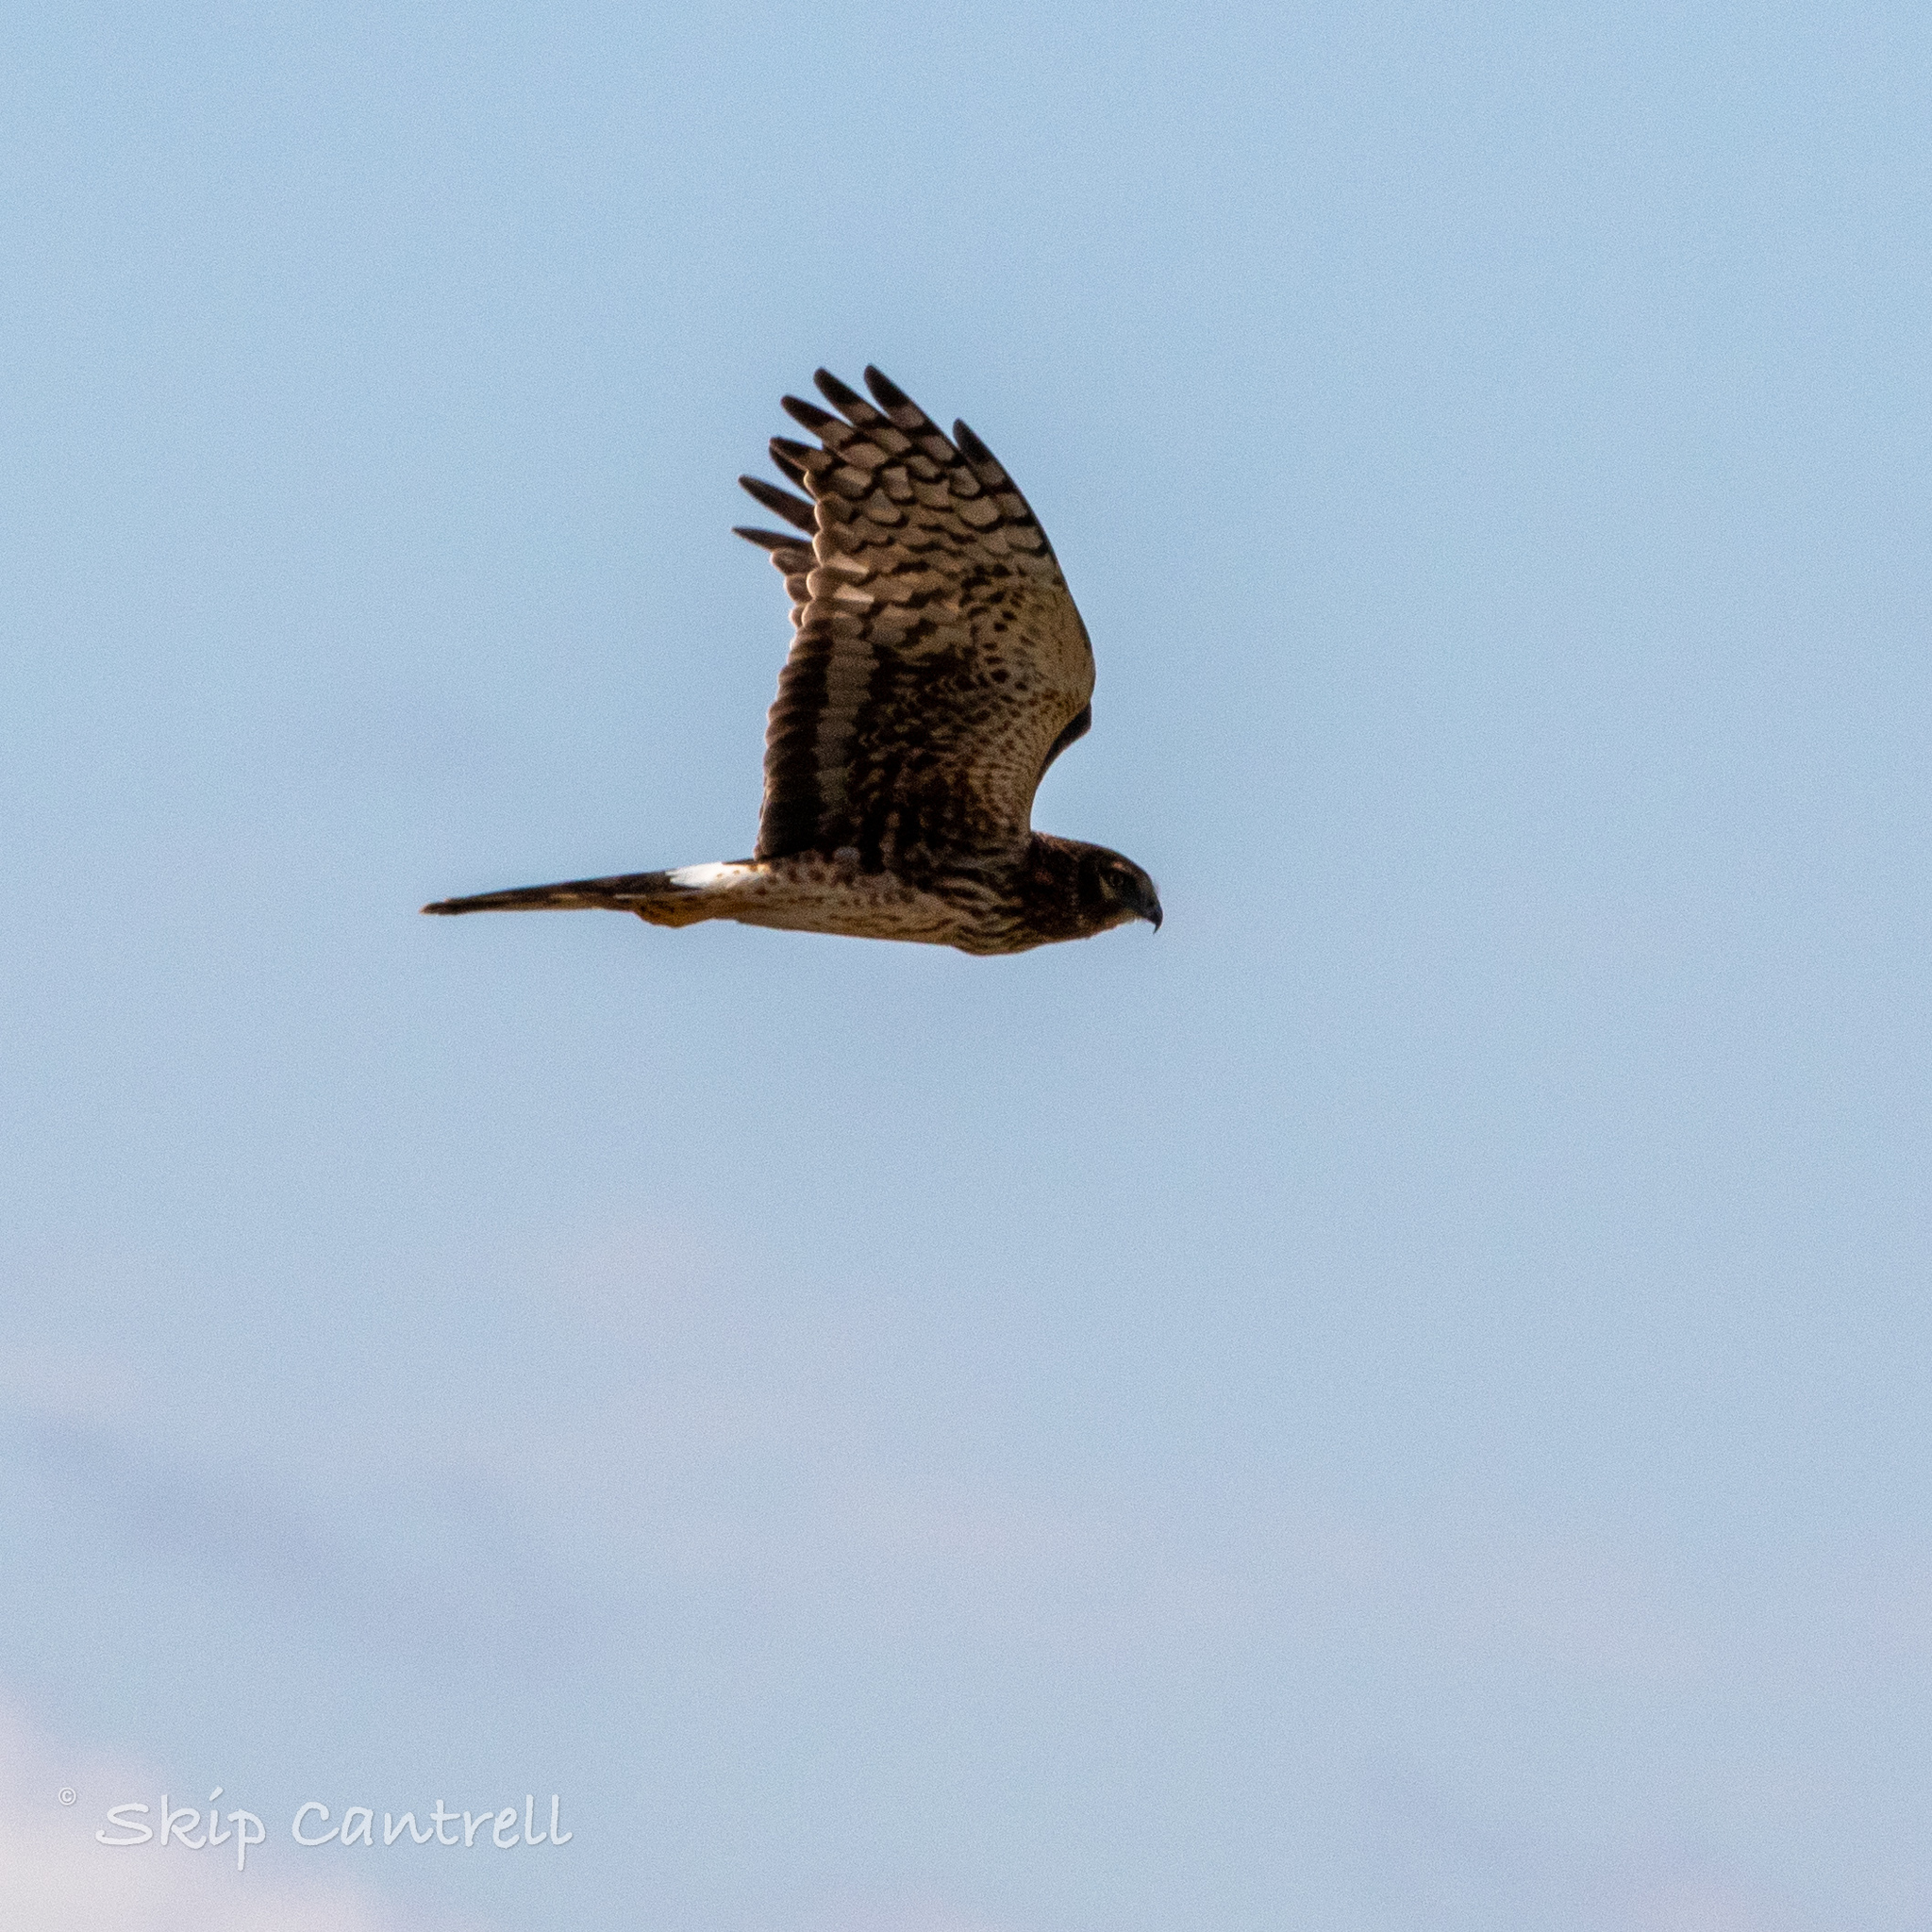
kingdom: Animalia
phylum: Chordata
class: Aves
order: Accipitriformes
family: Accipitridae
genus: Circus
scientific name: Circus cyaneus
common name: Hen harrier
